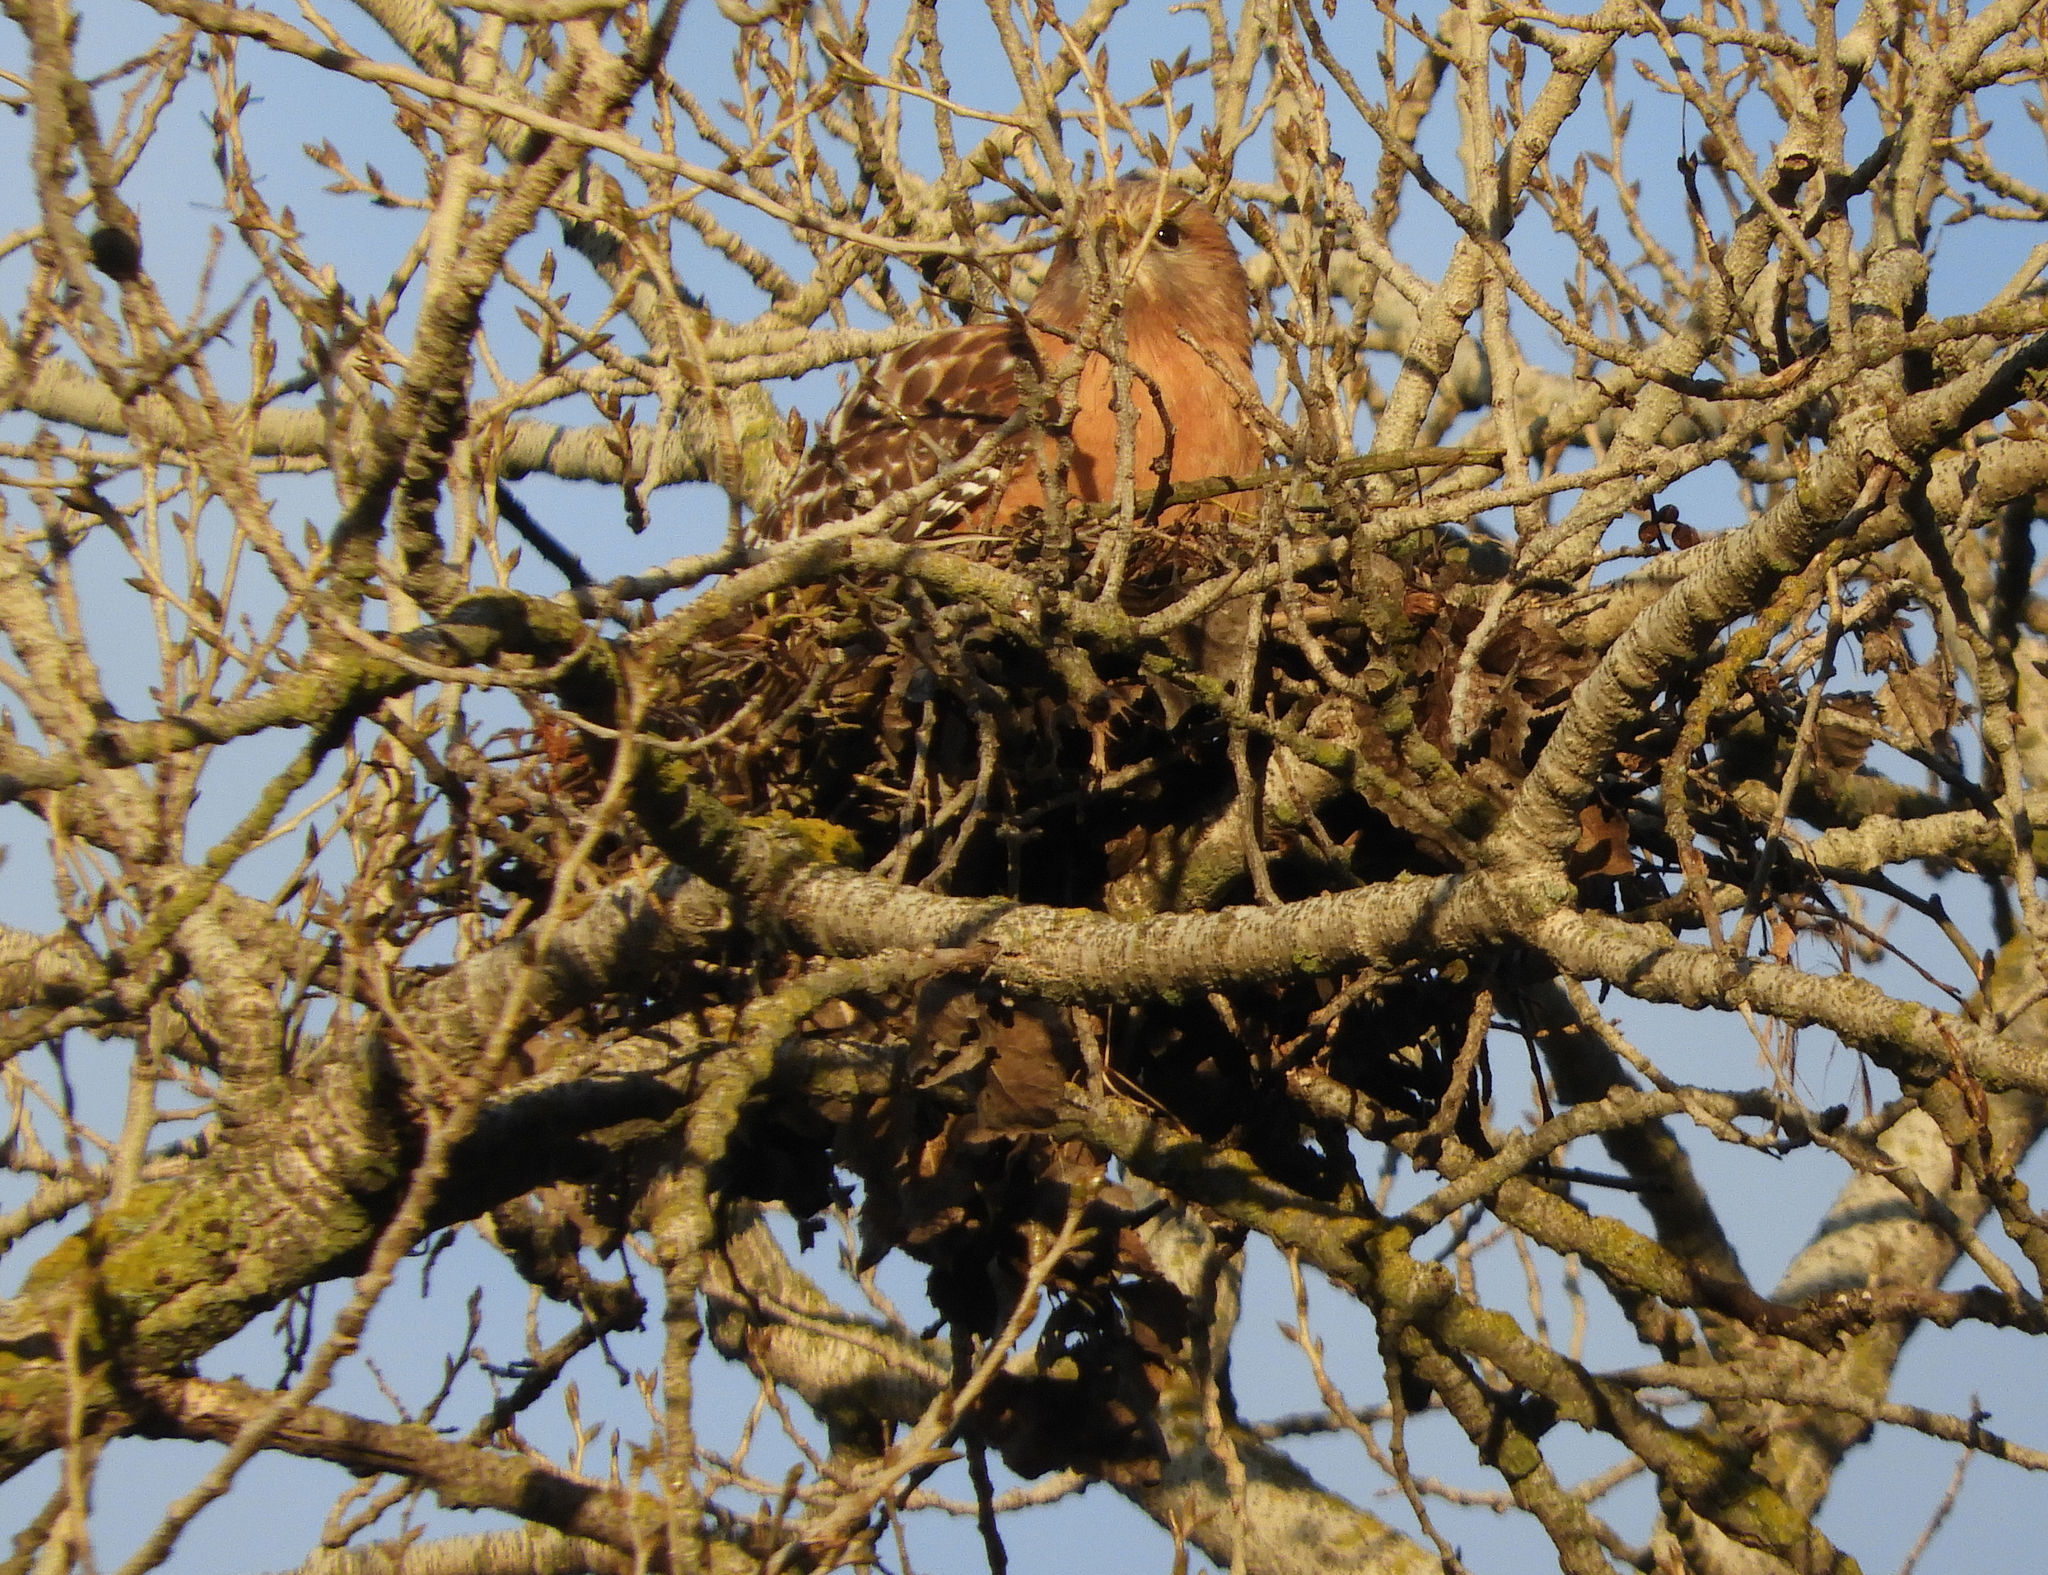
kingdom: Animalia
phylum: Chordata
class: Aves
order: Accipitriformes
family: Accipitridae
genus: Buteo
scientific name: Buteo lineatus
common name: Red-shouldered hawk
